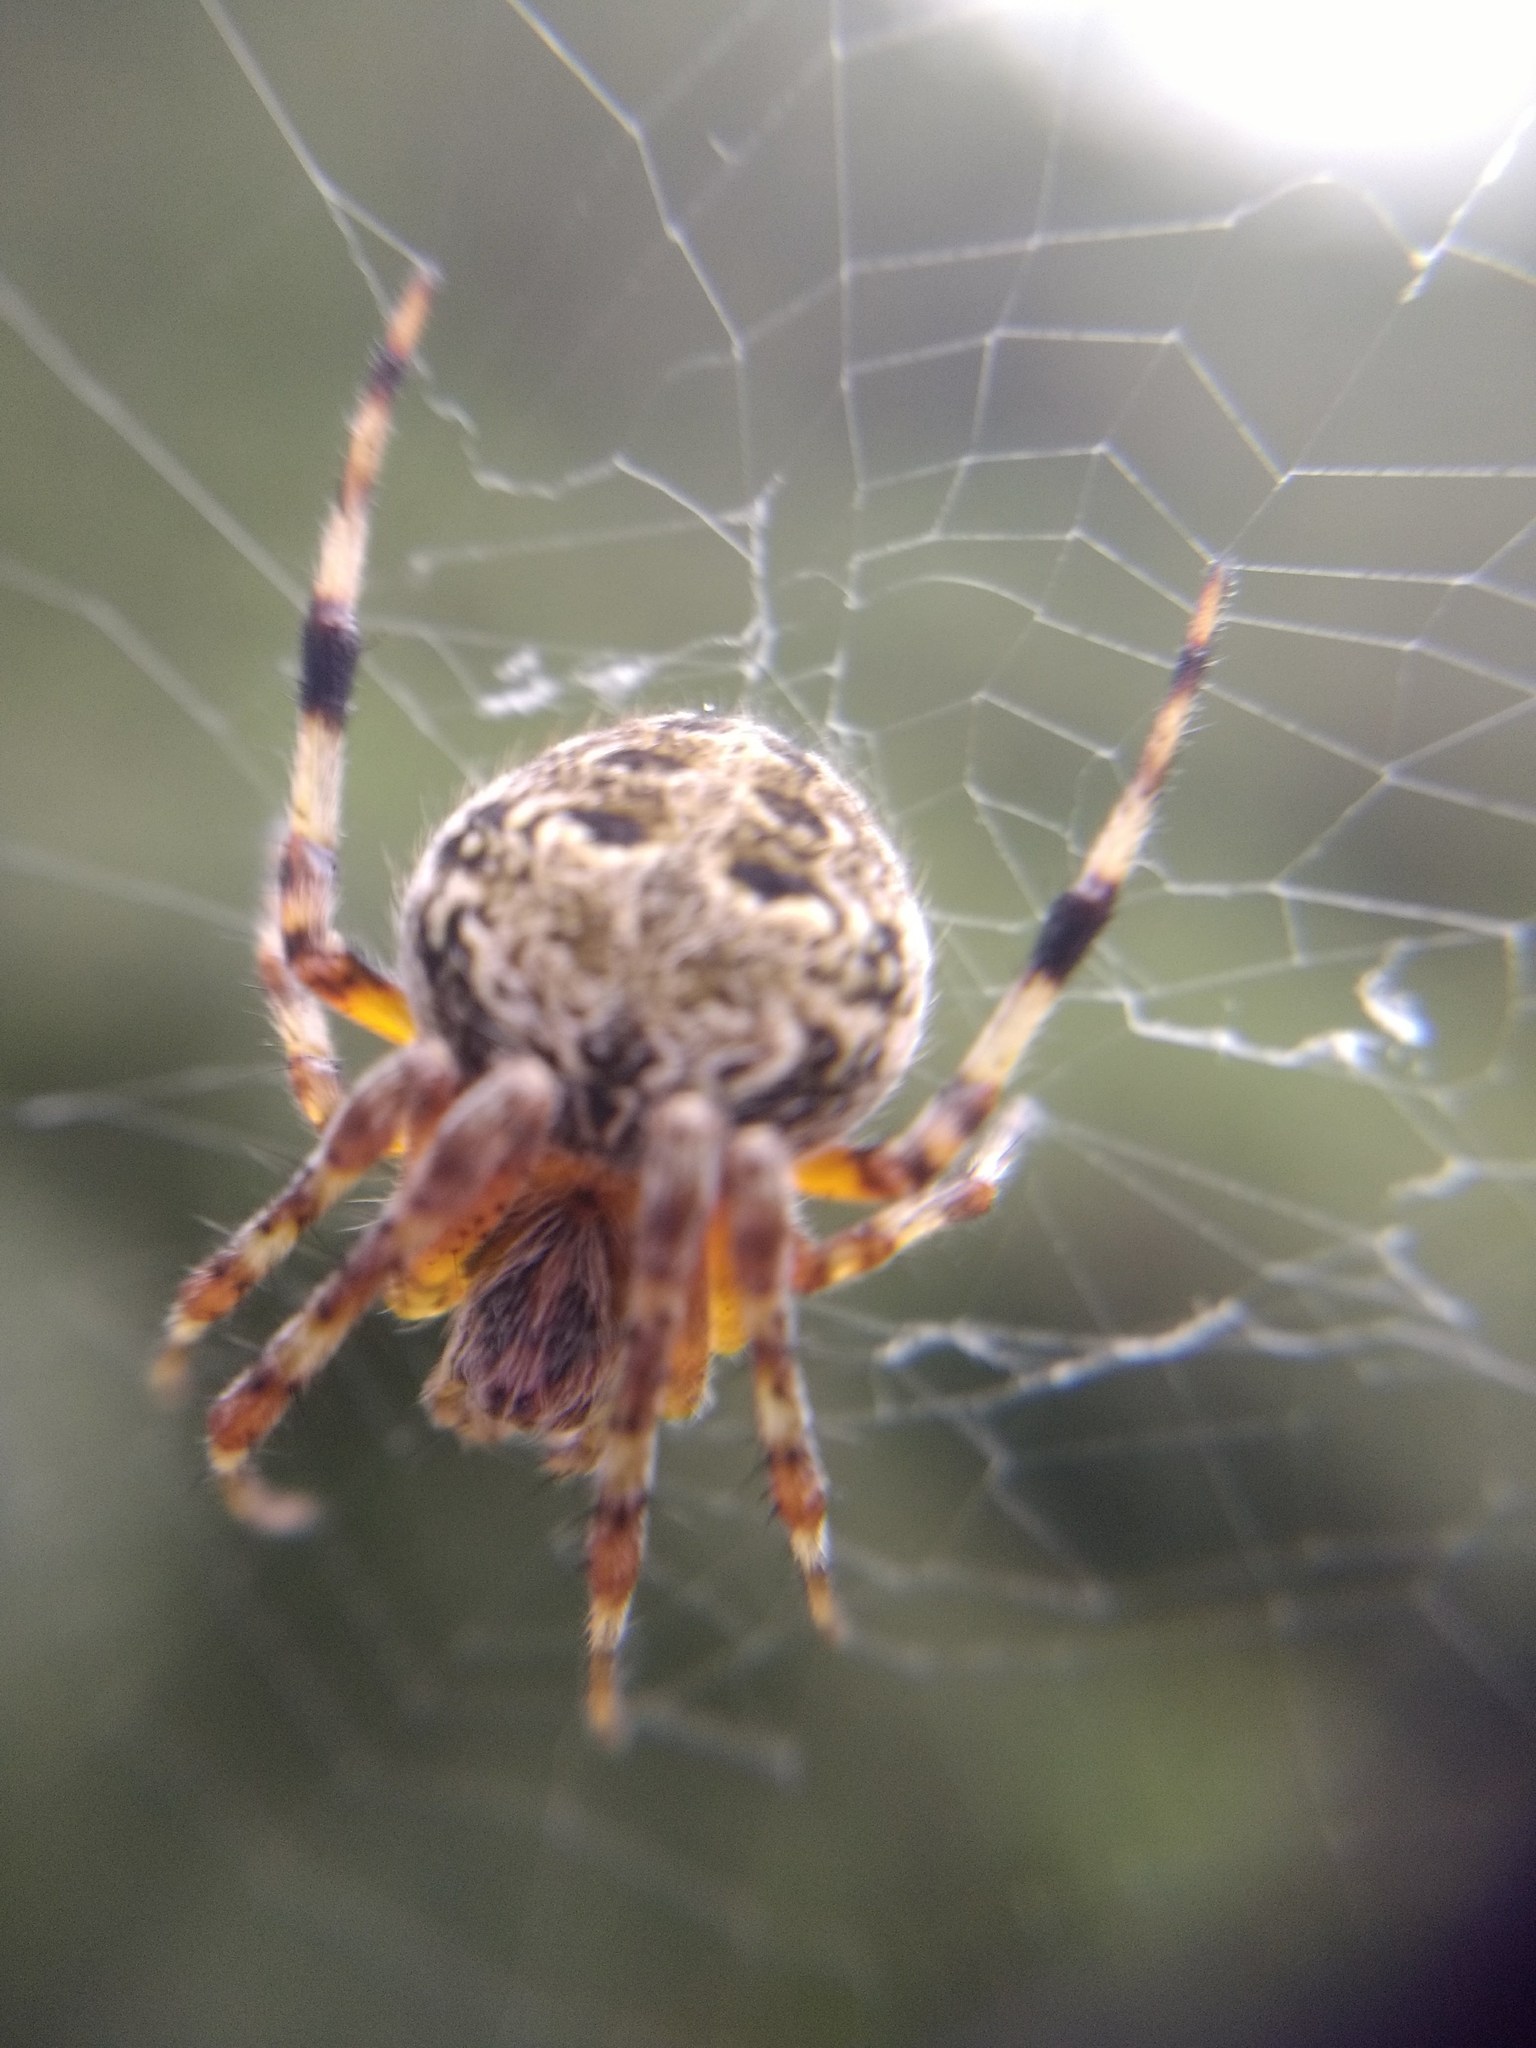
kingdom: Animalia
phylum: Arthropoda
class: Arachnida
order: Araneae
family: Araneidae
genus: Metepeira
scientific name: Metepeira
